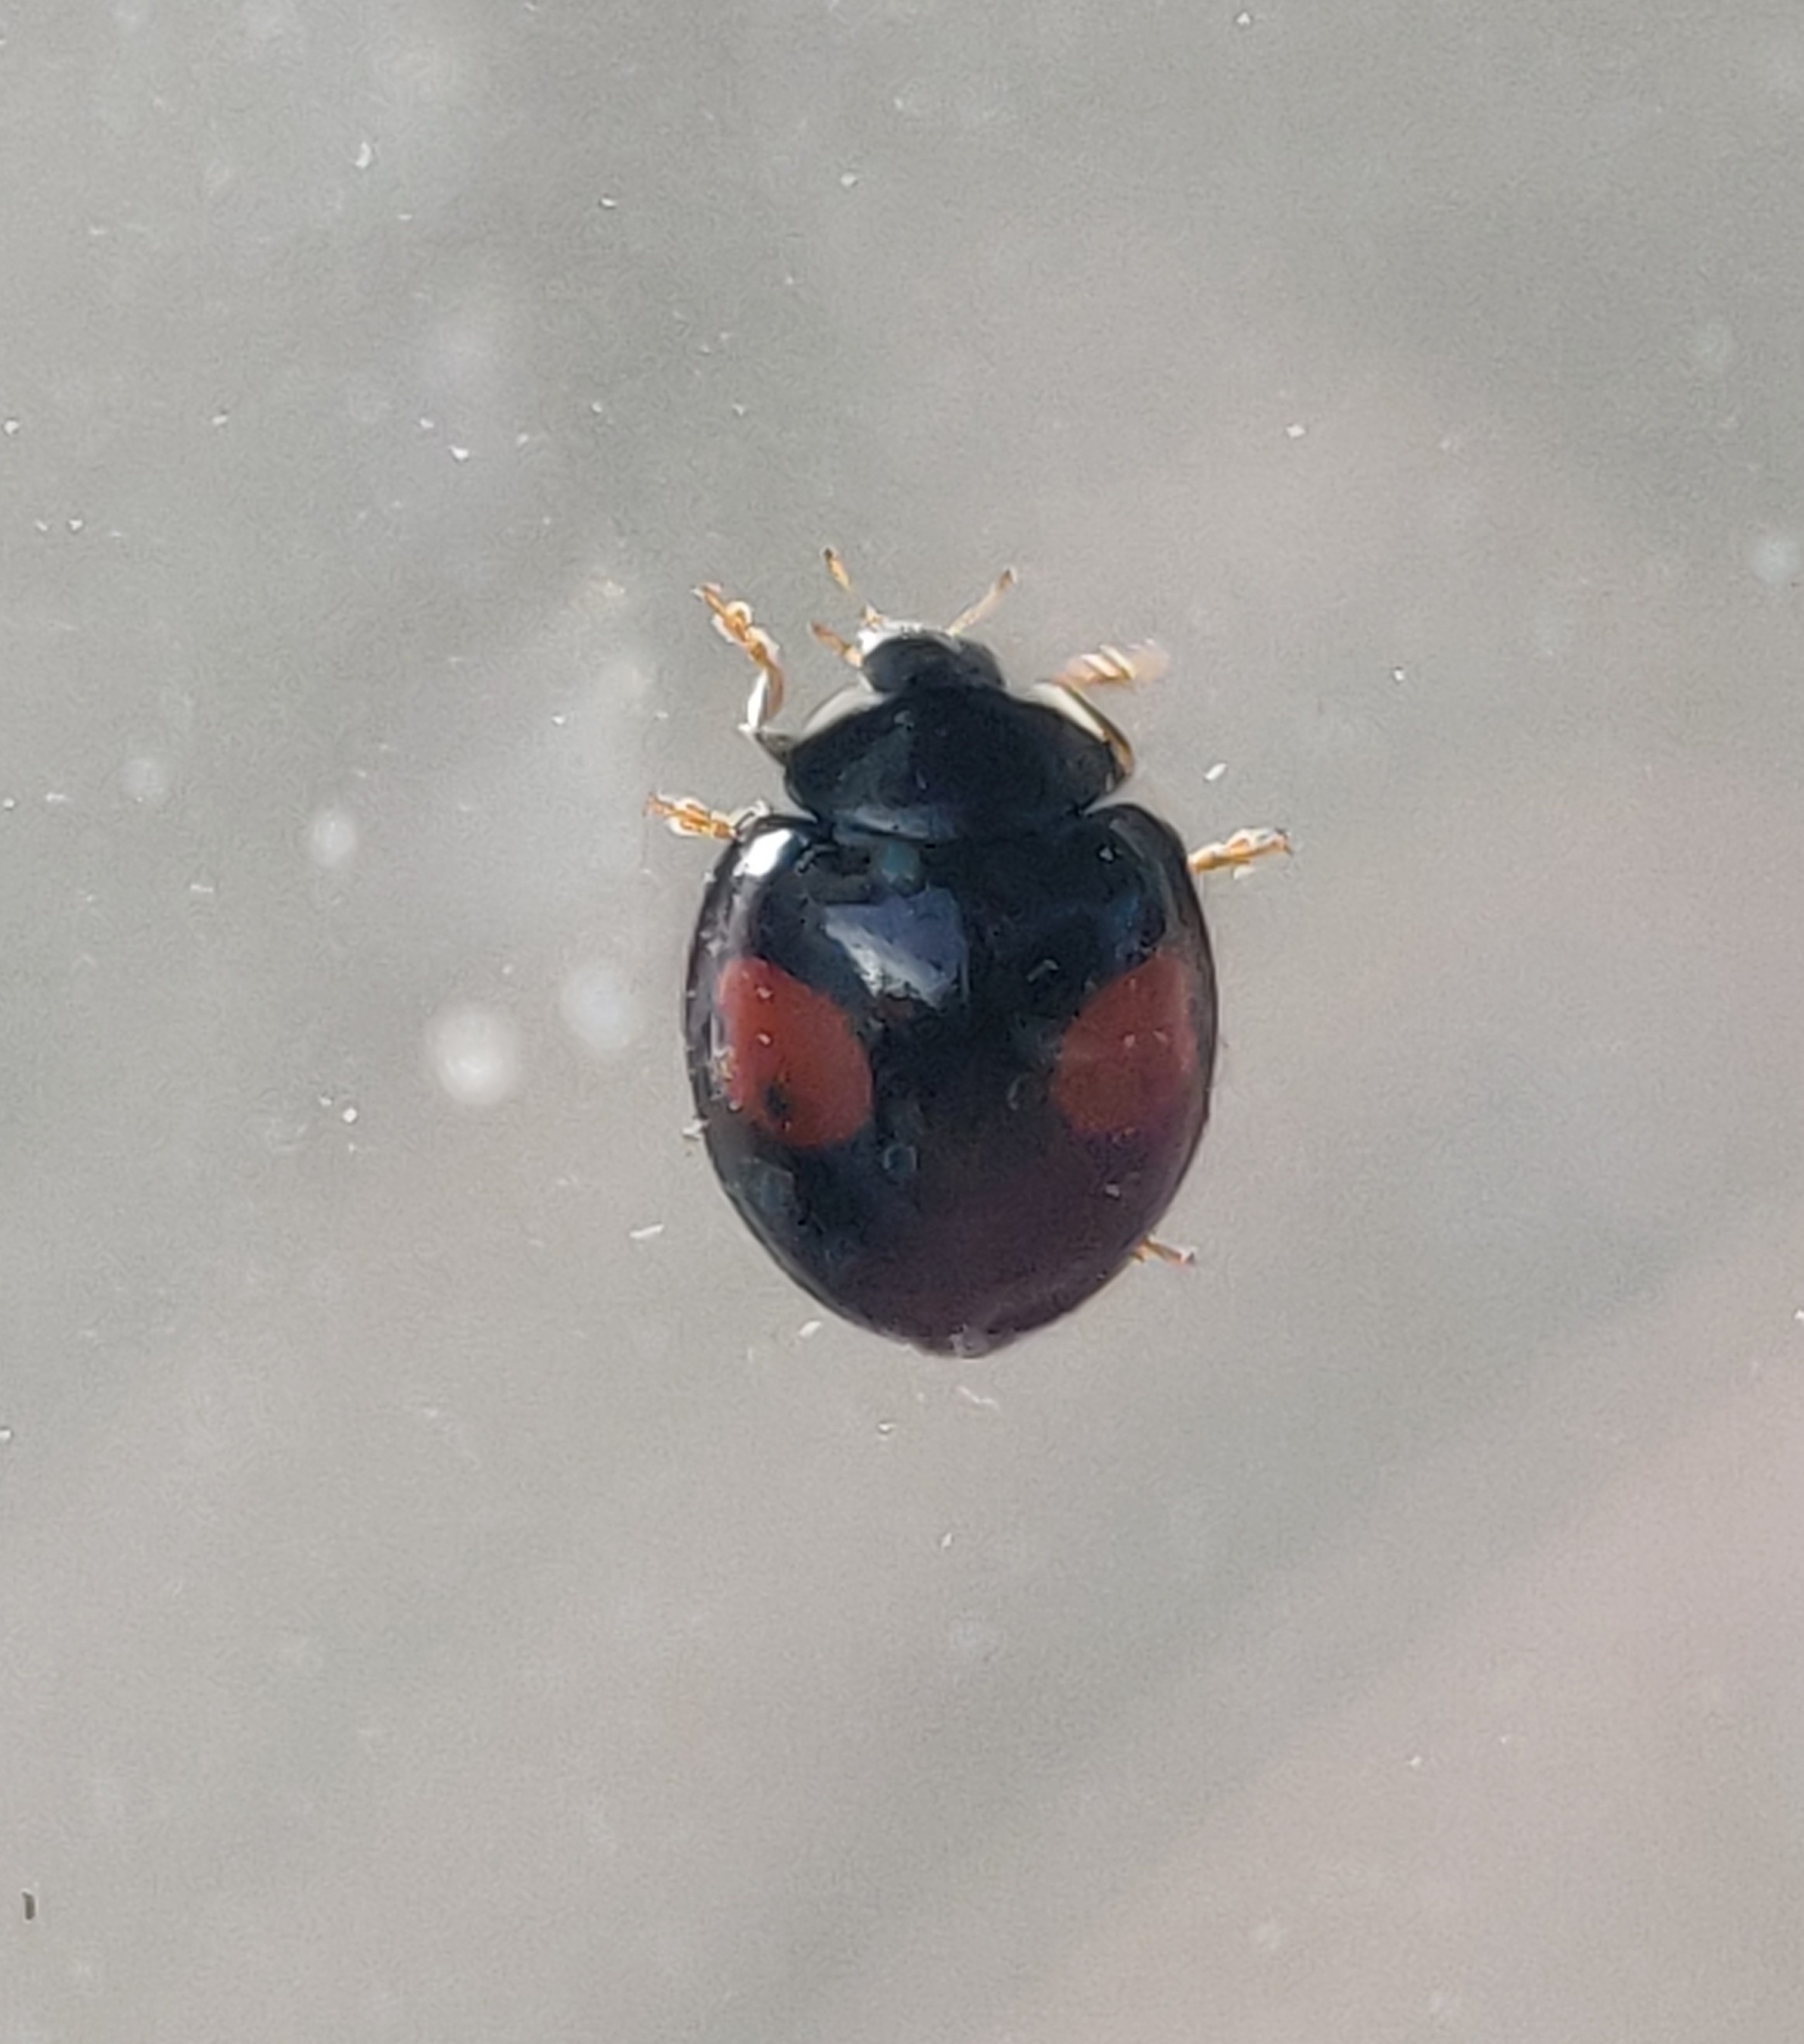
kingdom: Animalia
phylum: Arthropoda
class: Insecta
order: Coleoptera
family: Coccinellidae
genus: Harmonia
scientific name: Harmonia axyridis
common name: Harlequin ladybird
